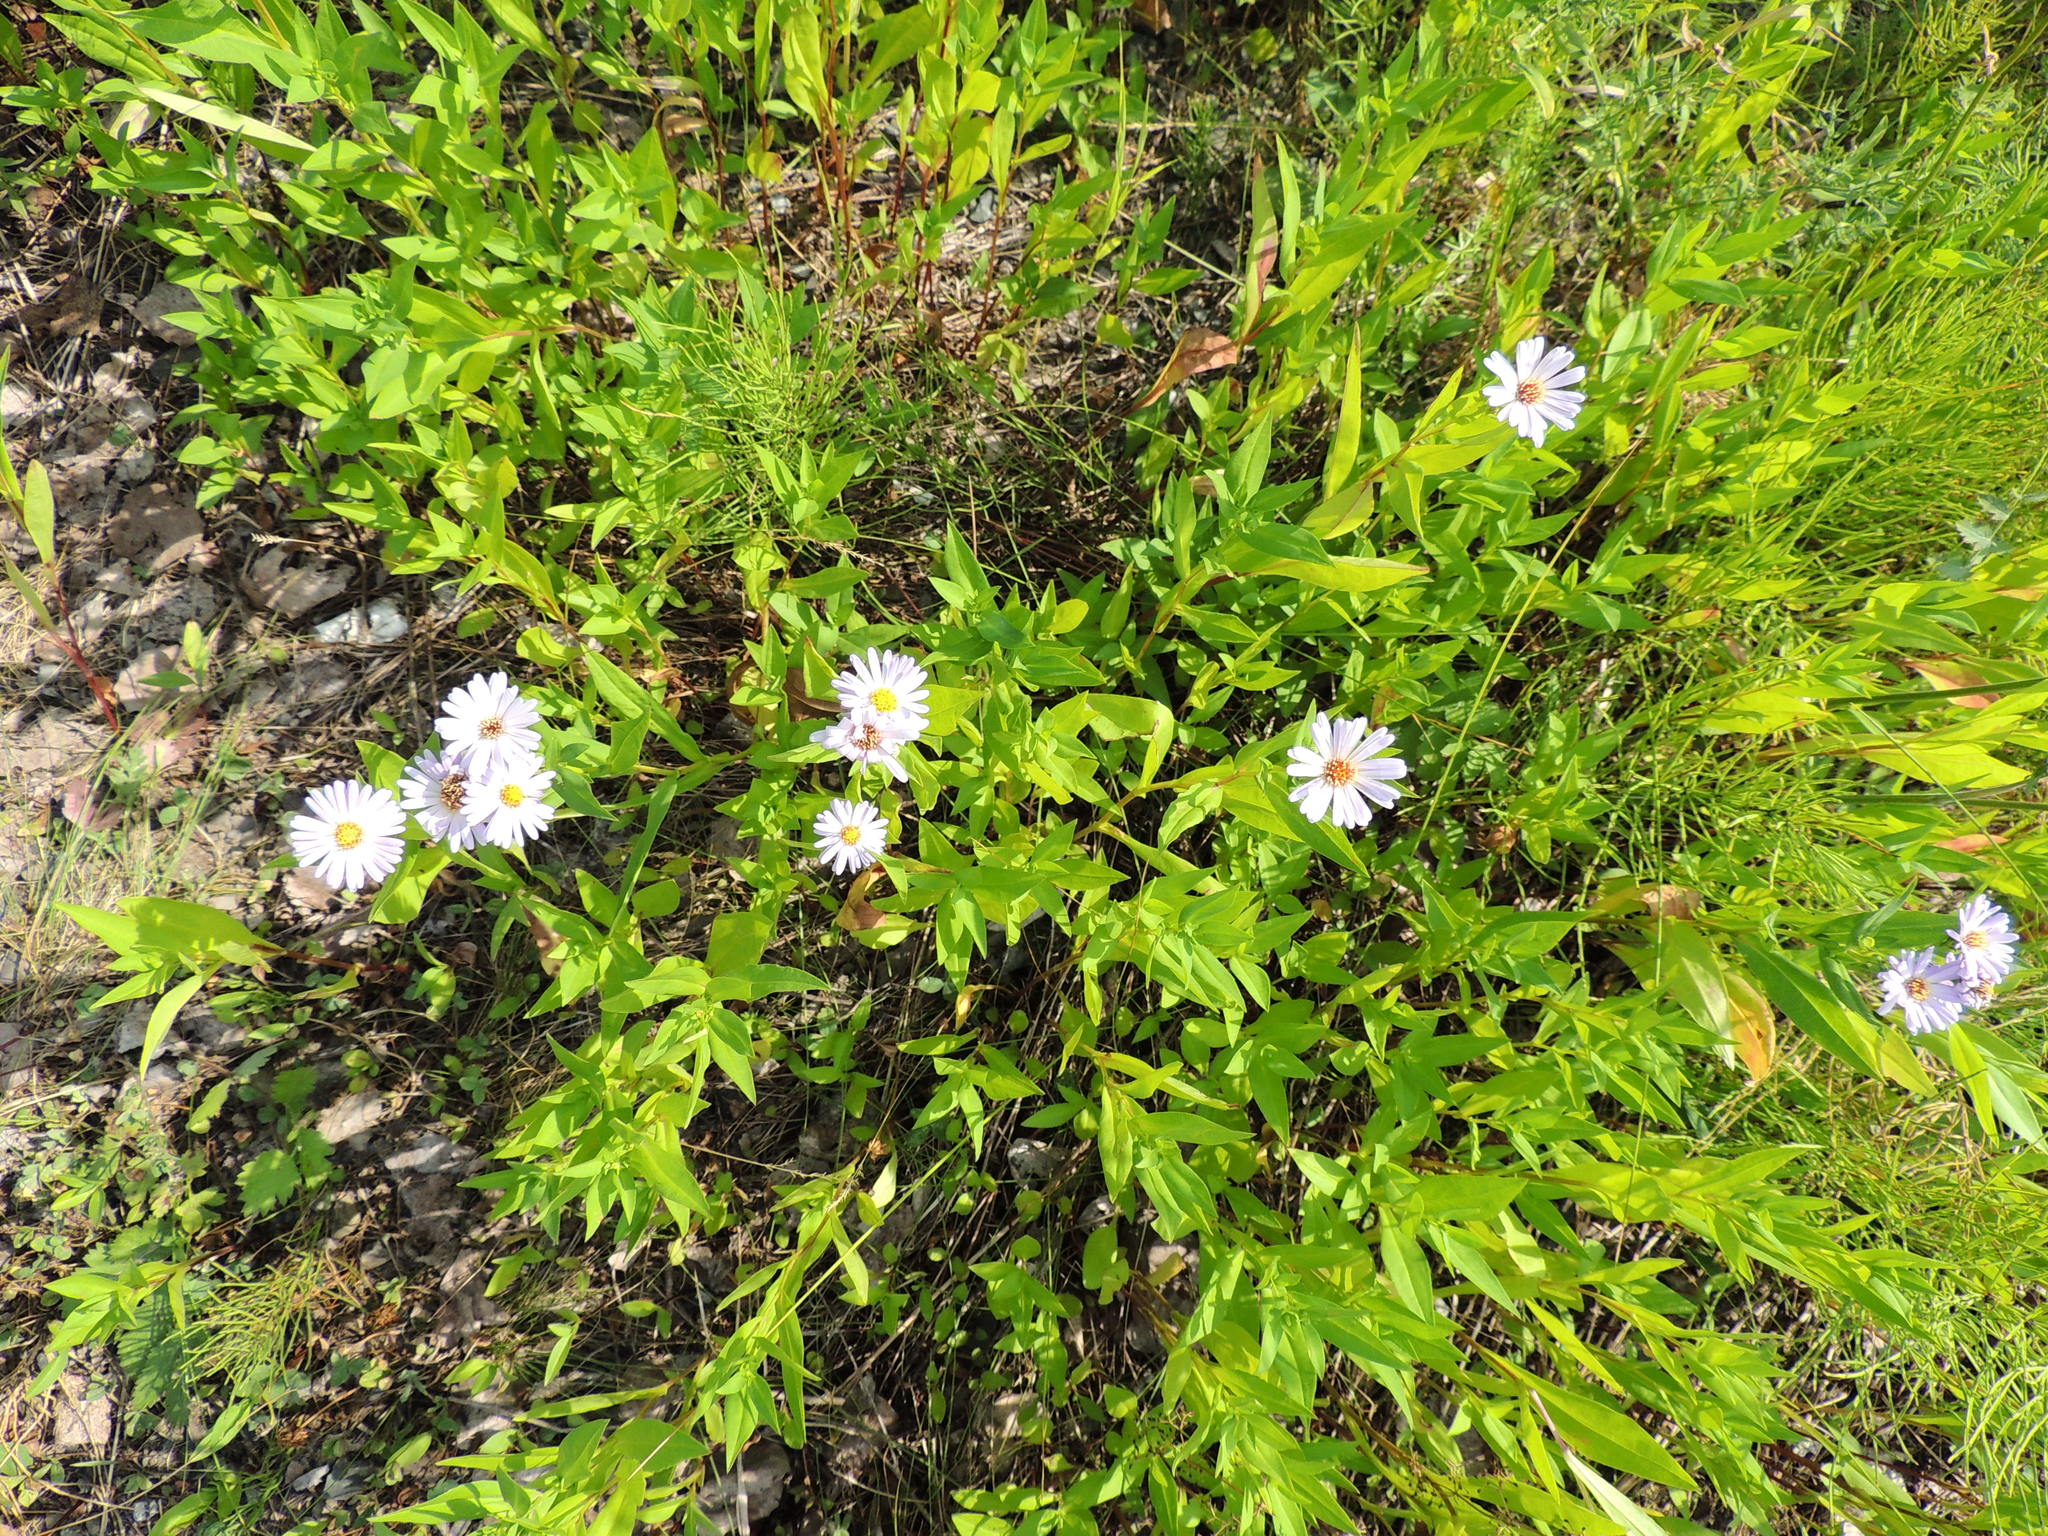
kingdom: Plantae
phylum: Tracheophyta
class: Magnoliopsida
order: Asterales
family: Asteraceae
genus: Symphyotrichum
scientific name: Symphyotrichum salignum
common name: Common michaelmas daisy
